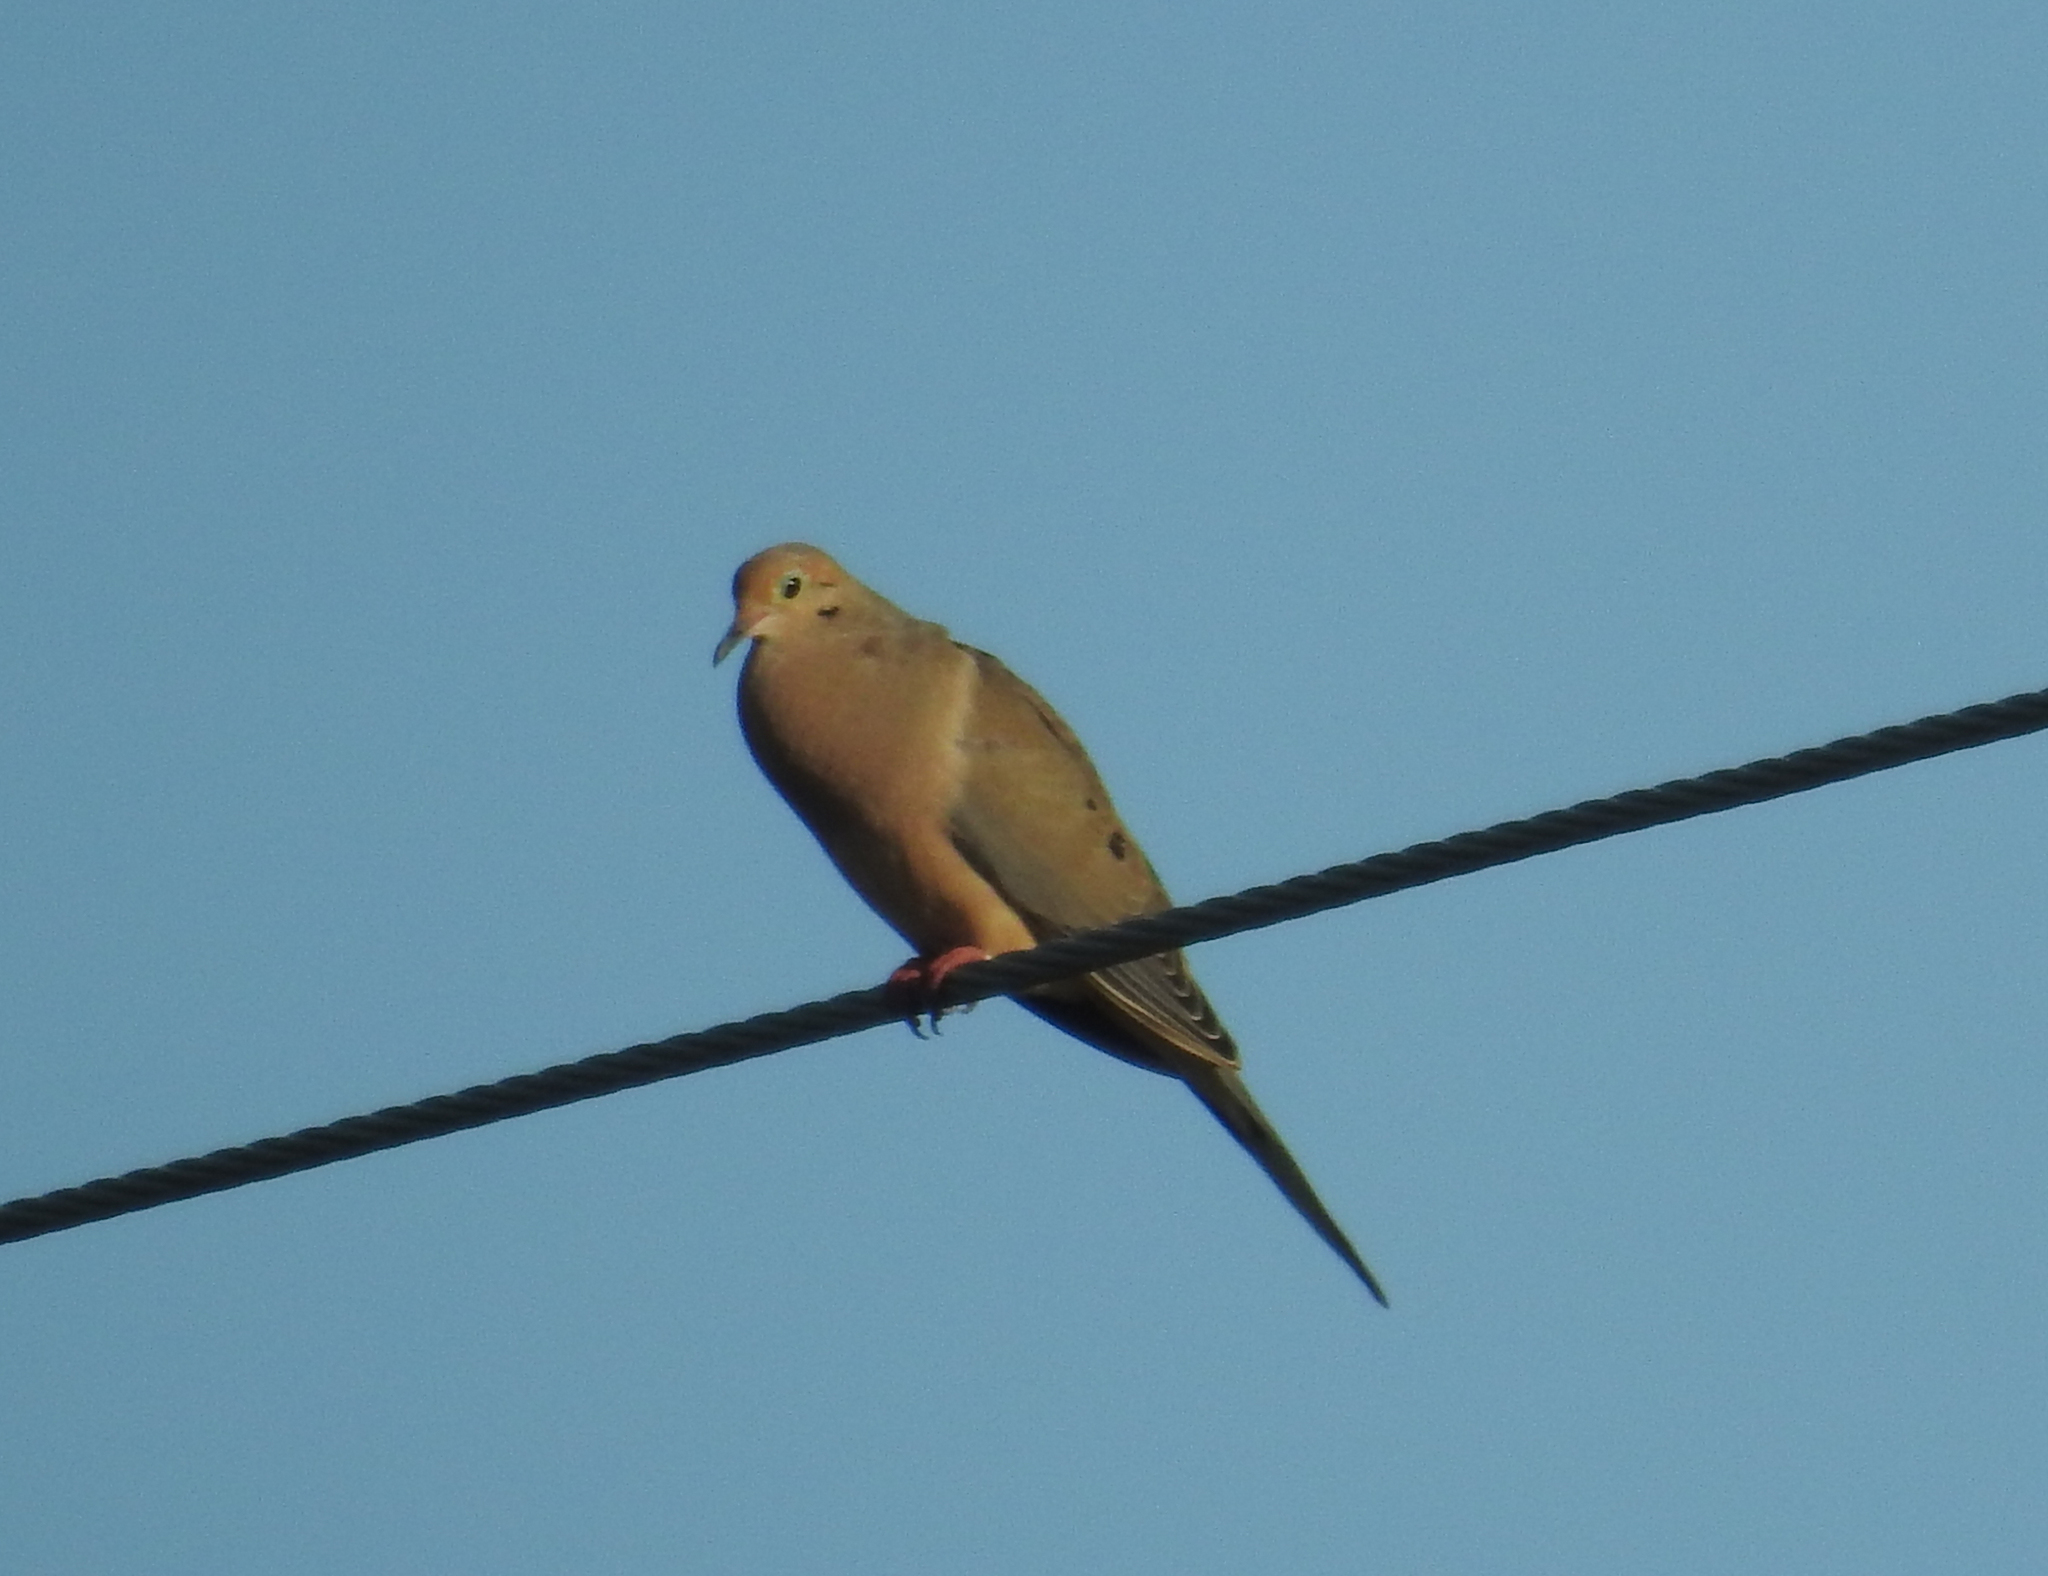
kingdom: Animalia
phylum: Chordata
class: Aves
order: Columbiformes
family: Columbidae
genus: Zenaida
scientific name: Zenaida macroura
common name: Mourning dove
